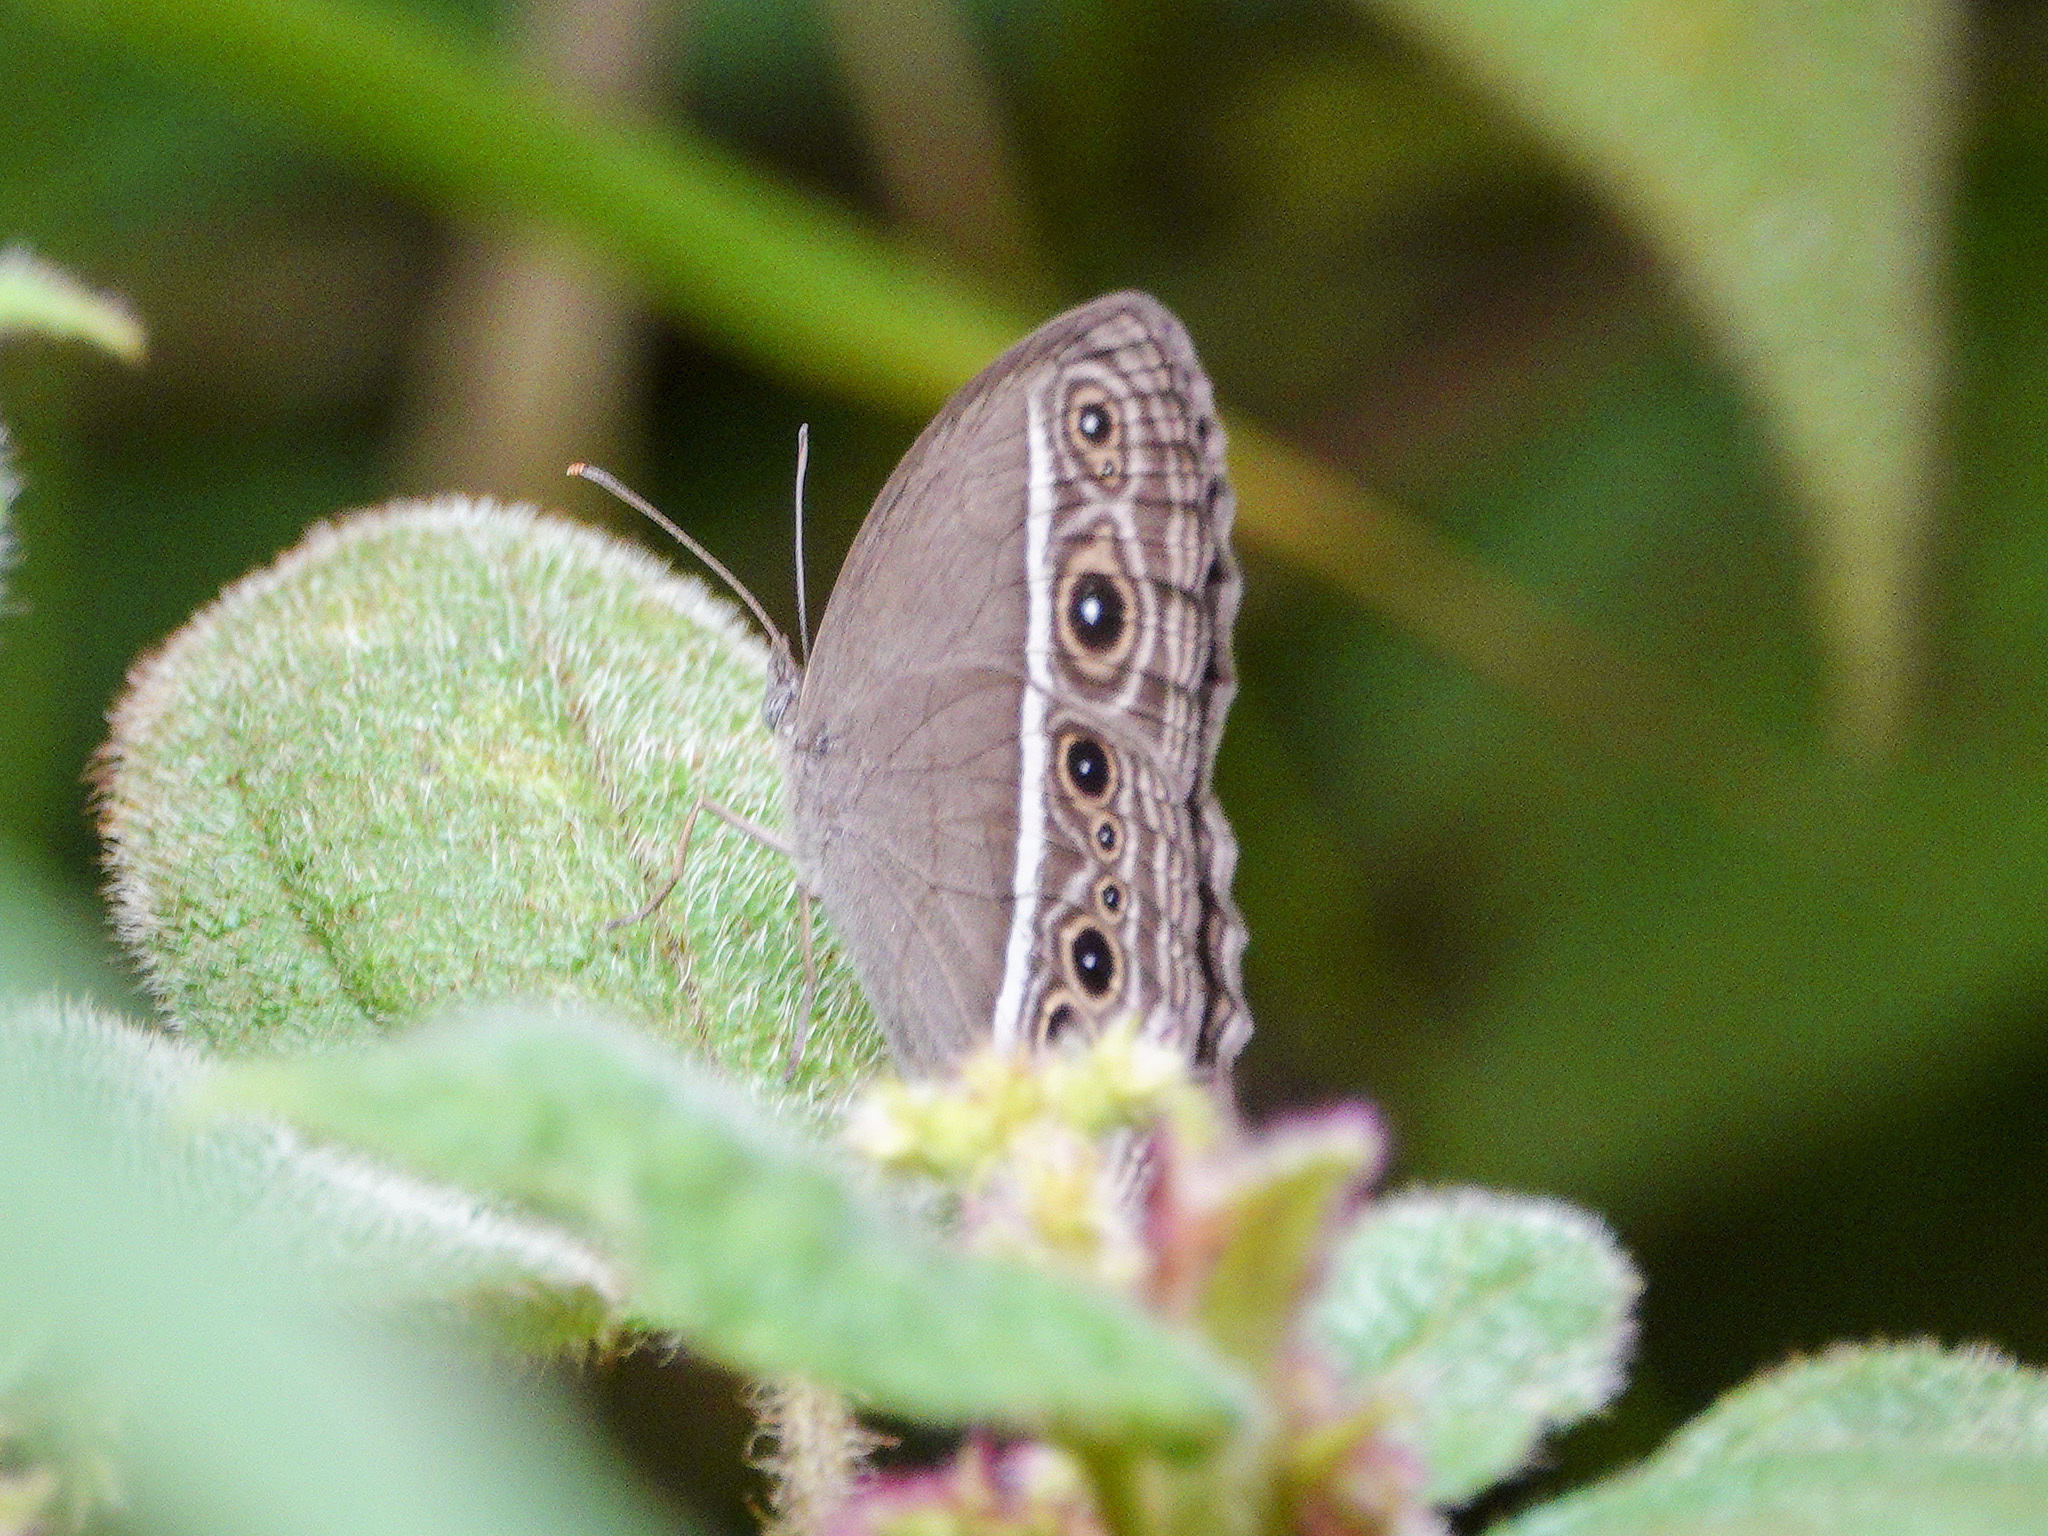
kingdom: Animalia
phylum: Arthropoda
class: Insecta
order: Lepidoptera
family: Nymphalidae
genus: Mycalesis
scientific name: Mycalesis mineus
